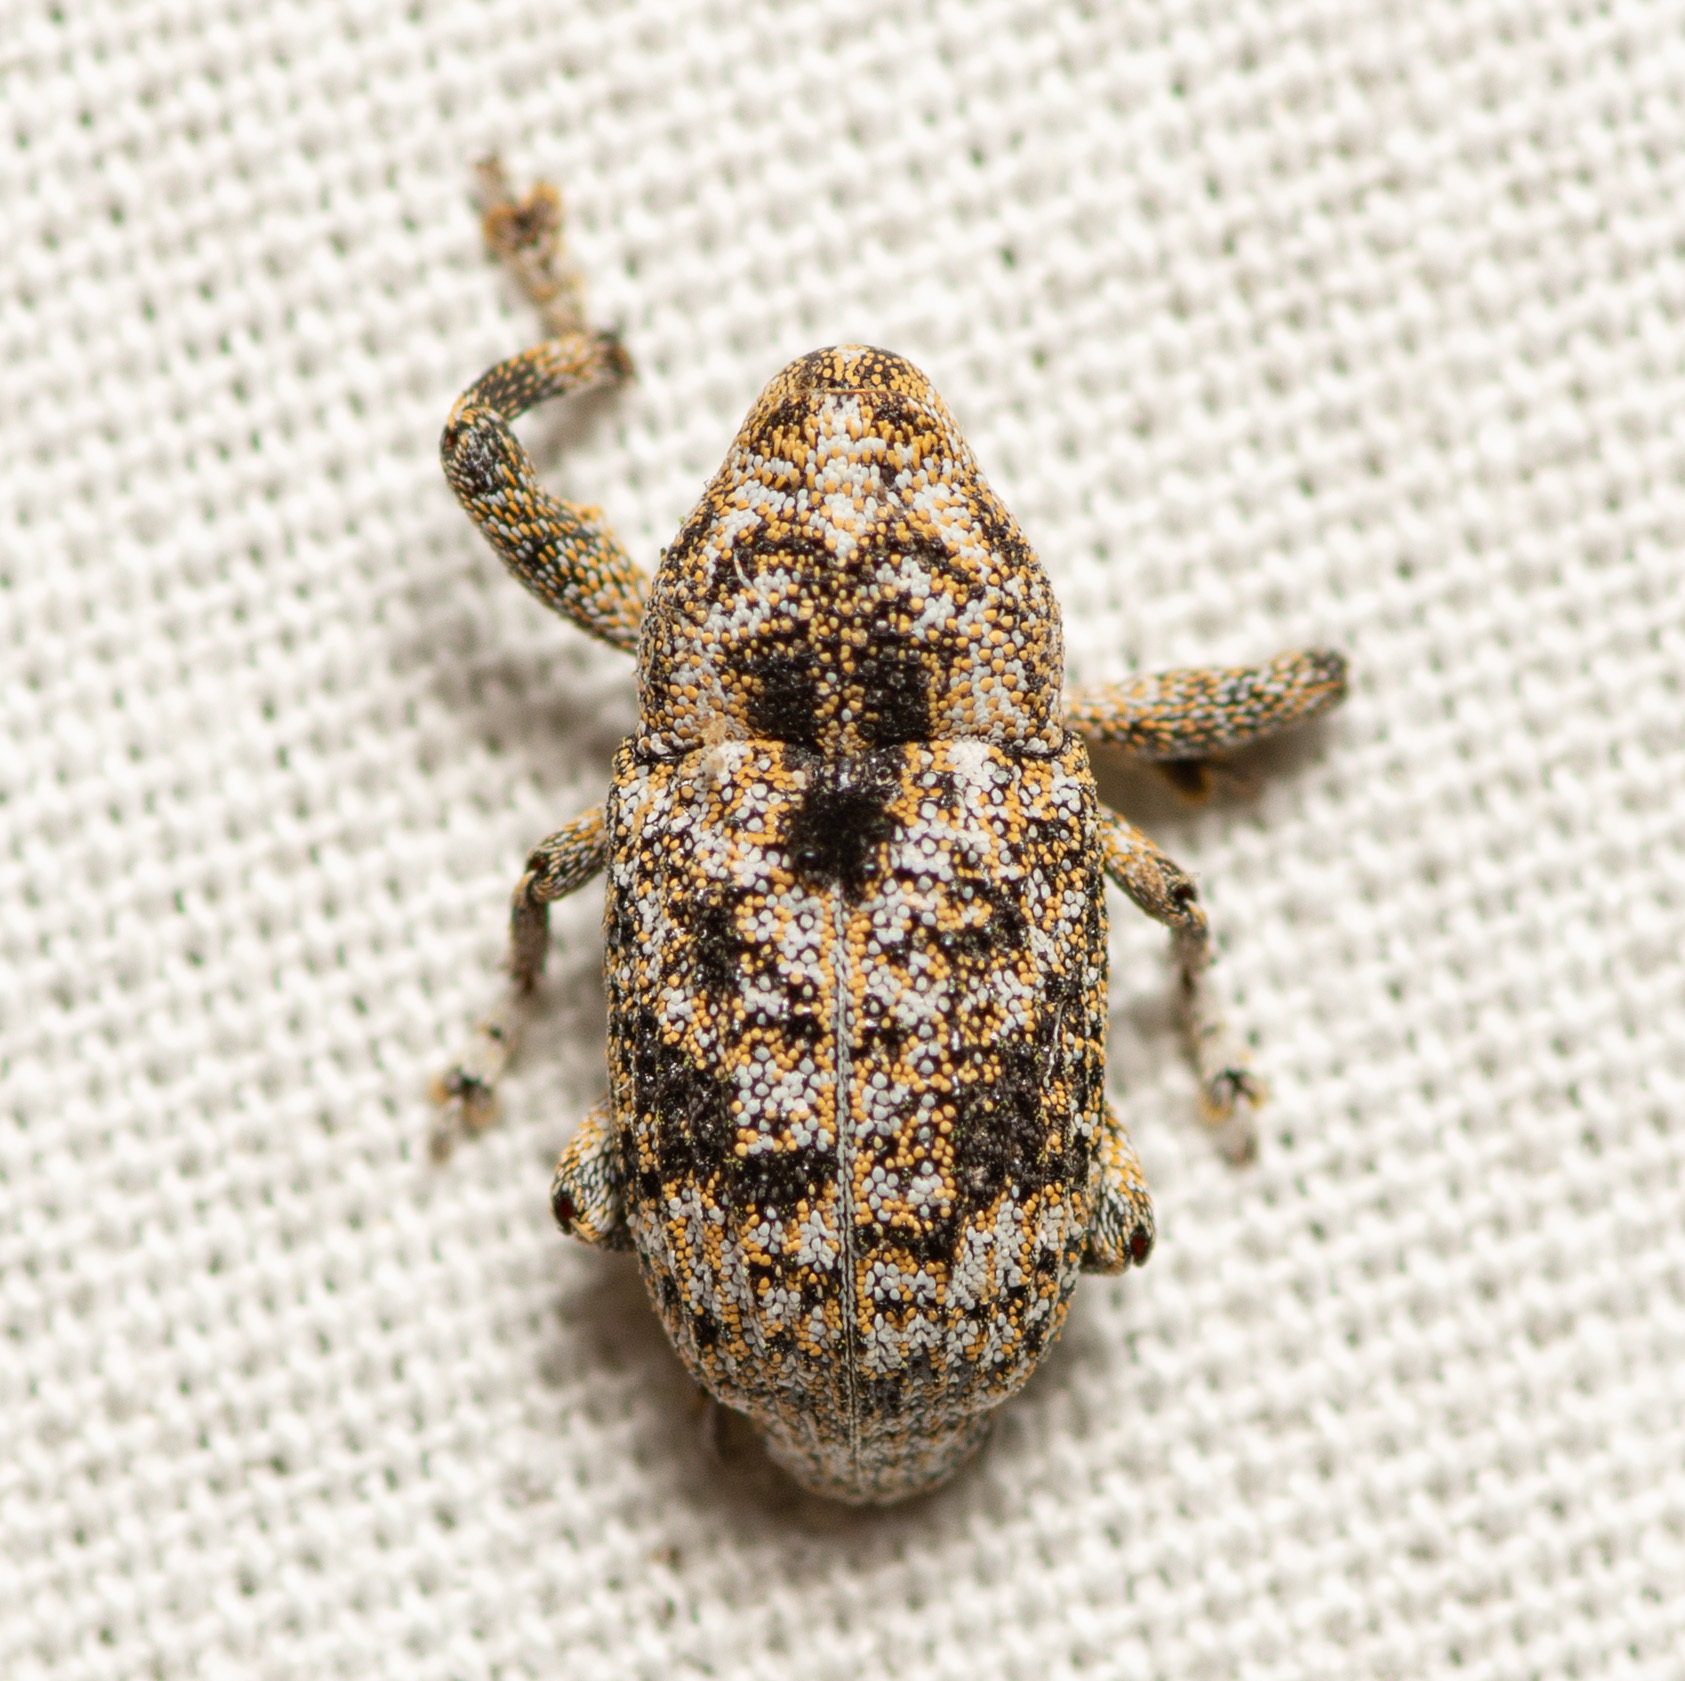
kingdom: Animalia
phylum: Arthropoda
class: Insecta
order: Coleoptera
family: Curculionidae
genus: Episcirrus
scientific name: Episcirrus brachialis
